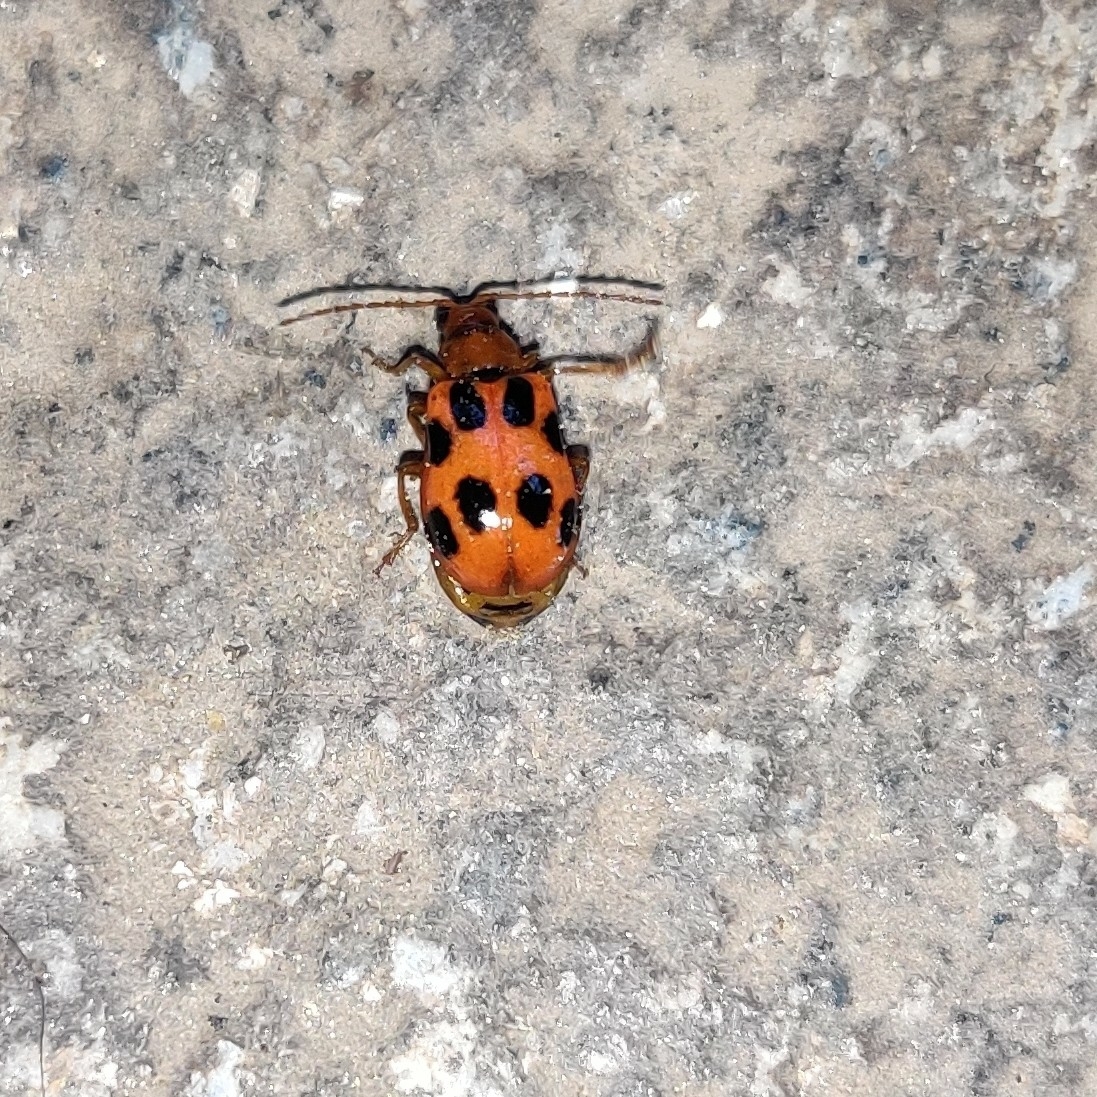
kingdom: Animalia
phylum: Arthropoda
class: Insecta
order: Coleoptera
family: Chrysomelidae
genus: Paridea
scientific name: Paridea
